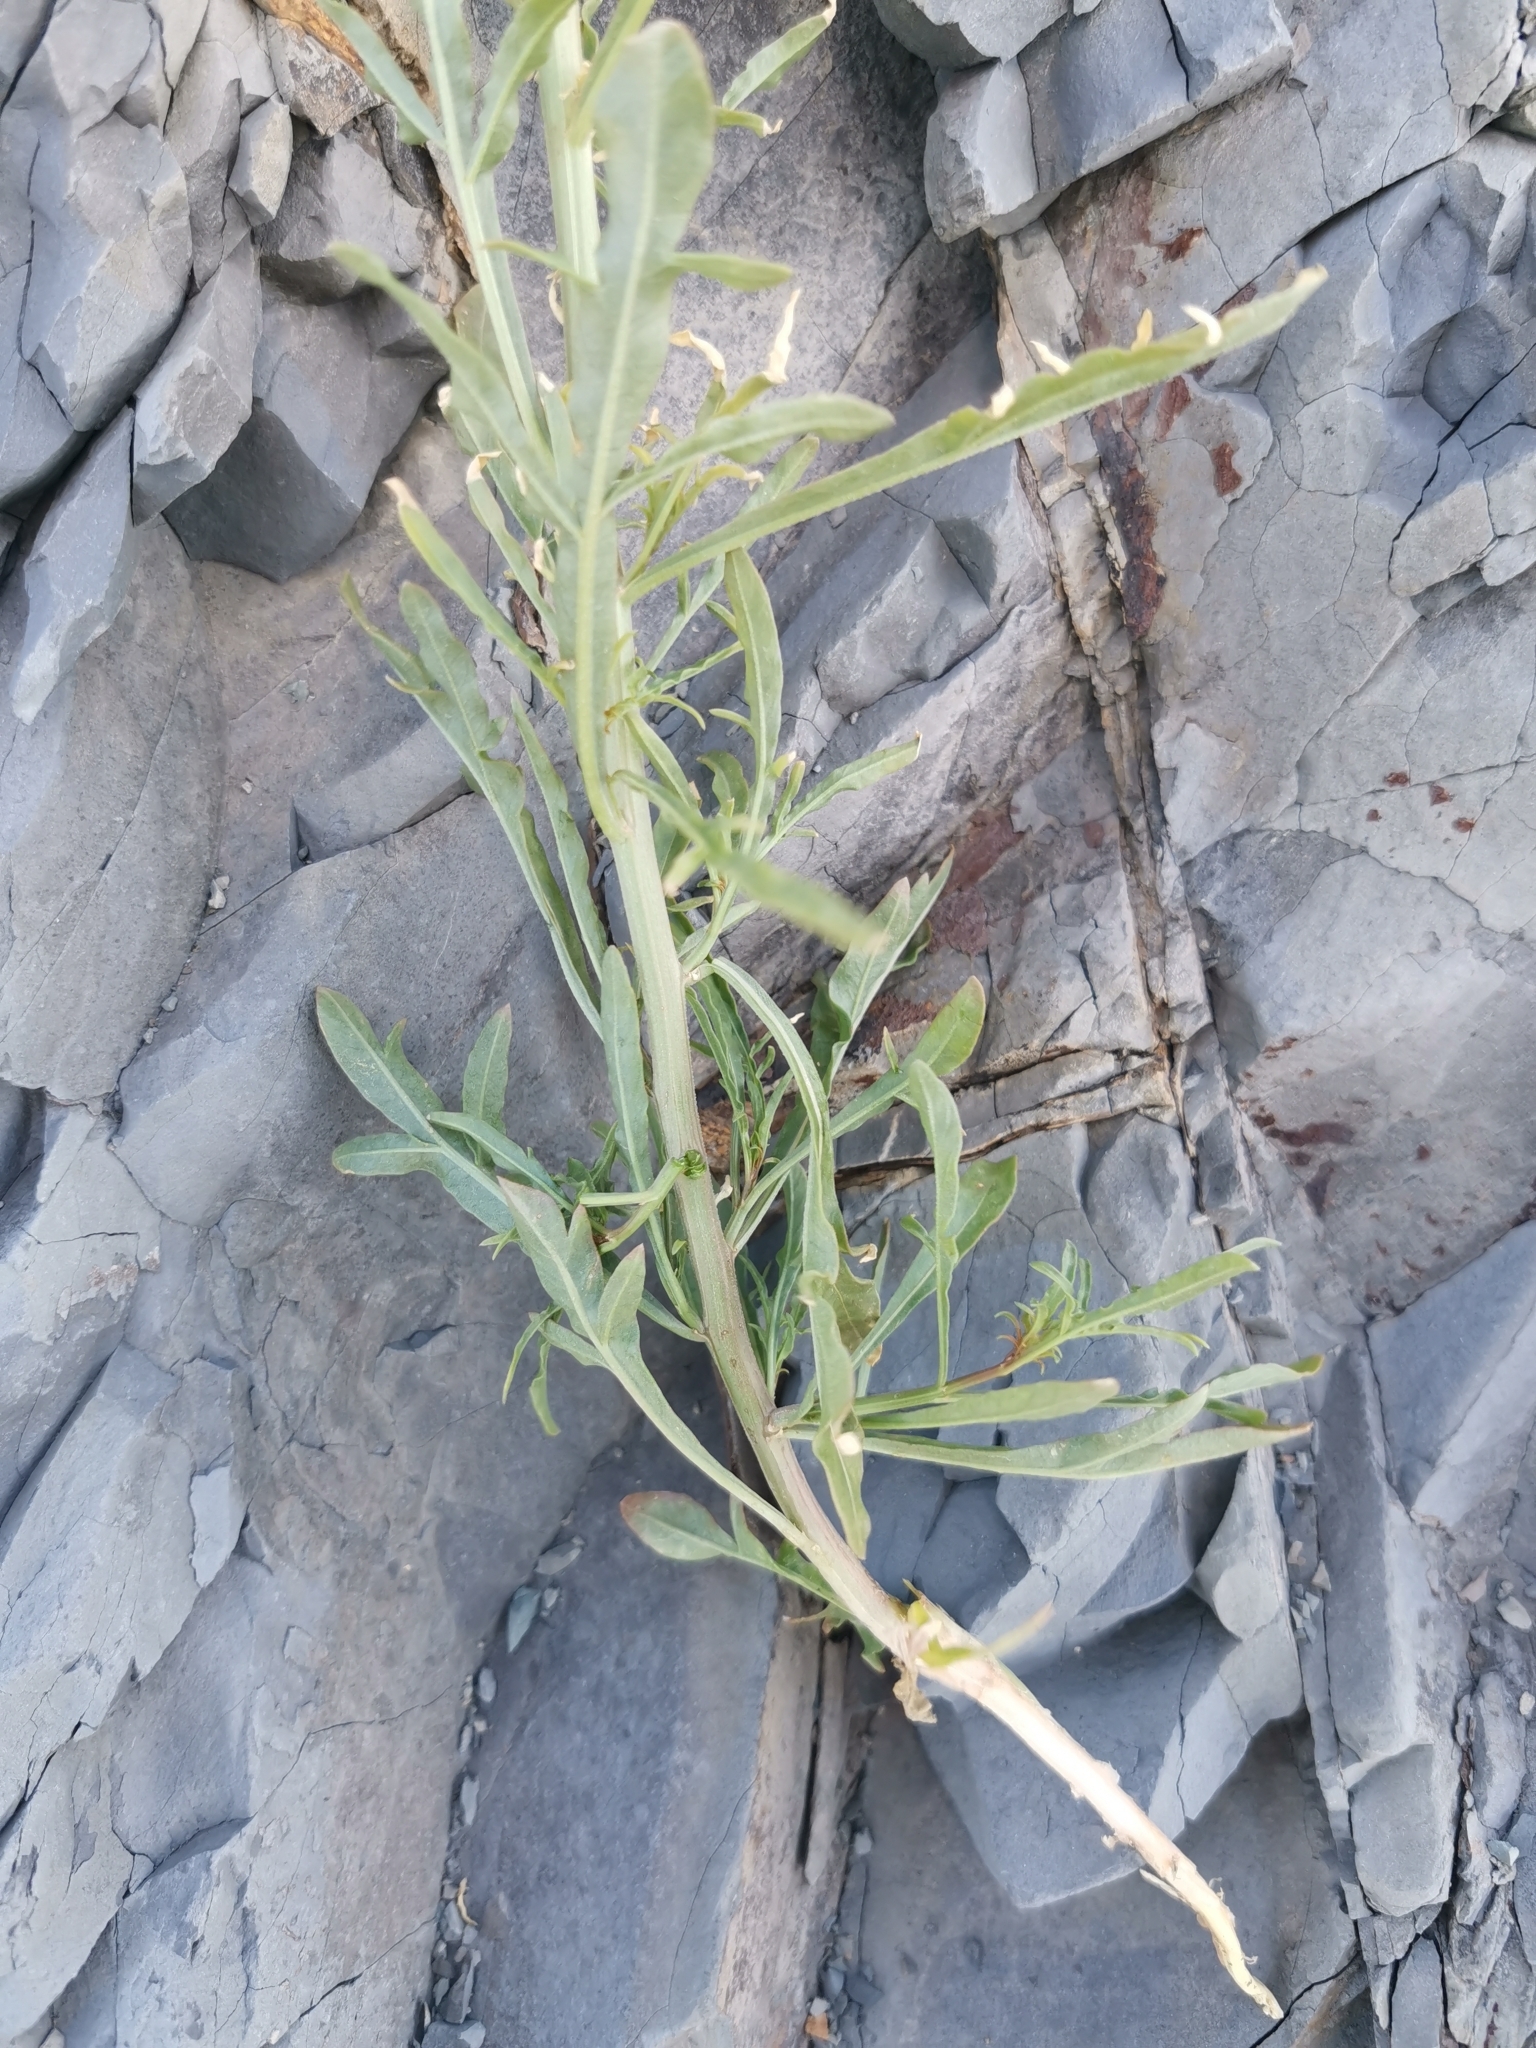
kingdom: Plantae
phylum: Tracheophyta
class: Magnoliopsida
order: Brassicales
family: Resedaceae
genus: Reseda
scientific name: Reseda lutea
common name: Wild mignonette
